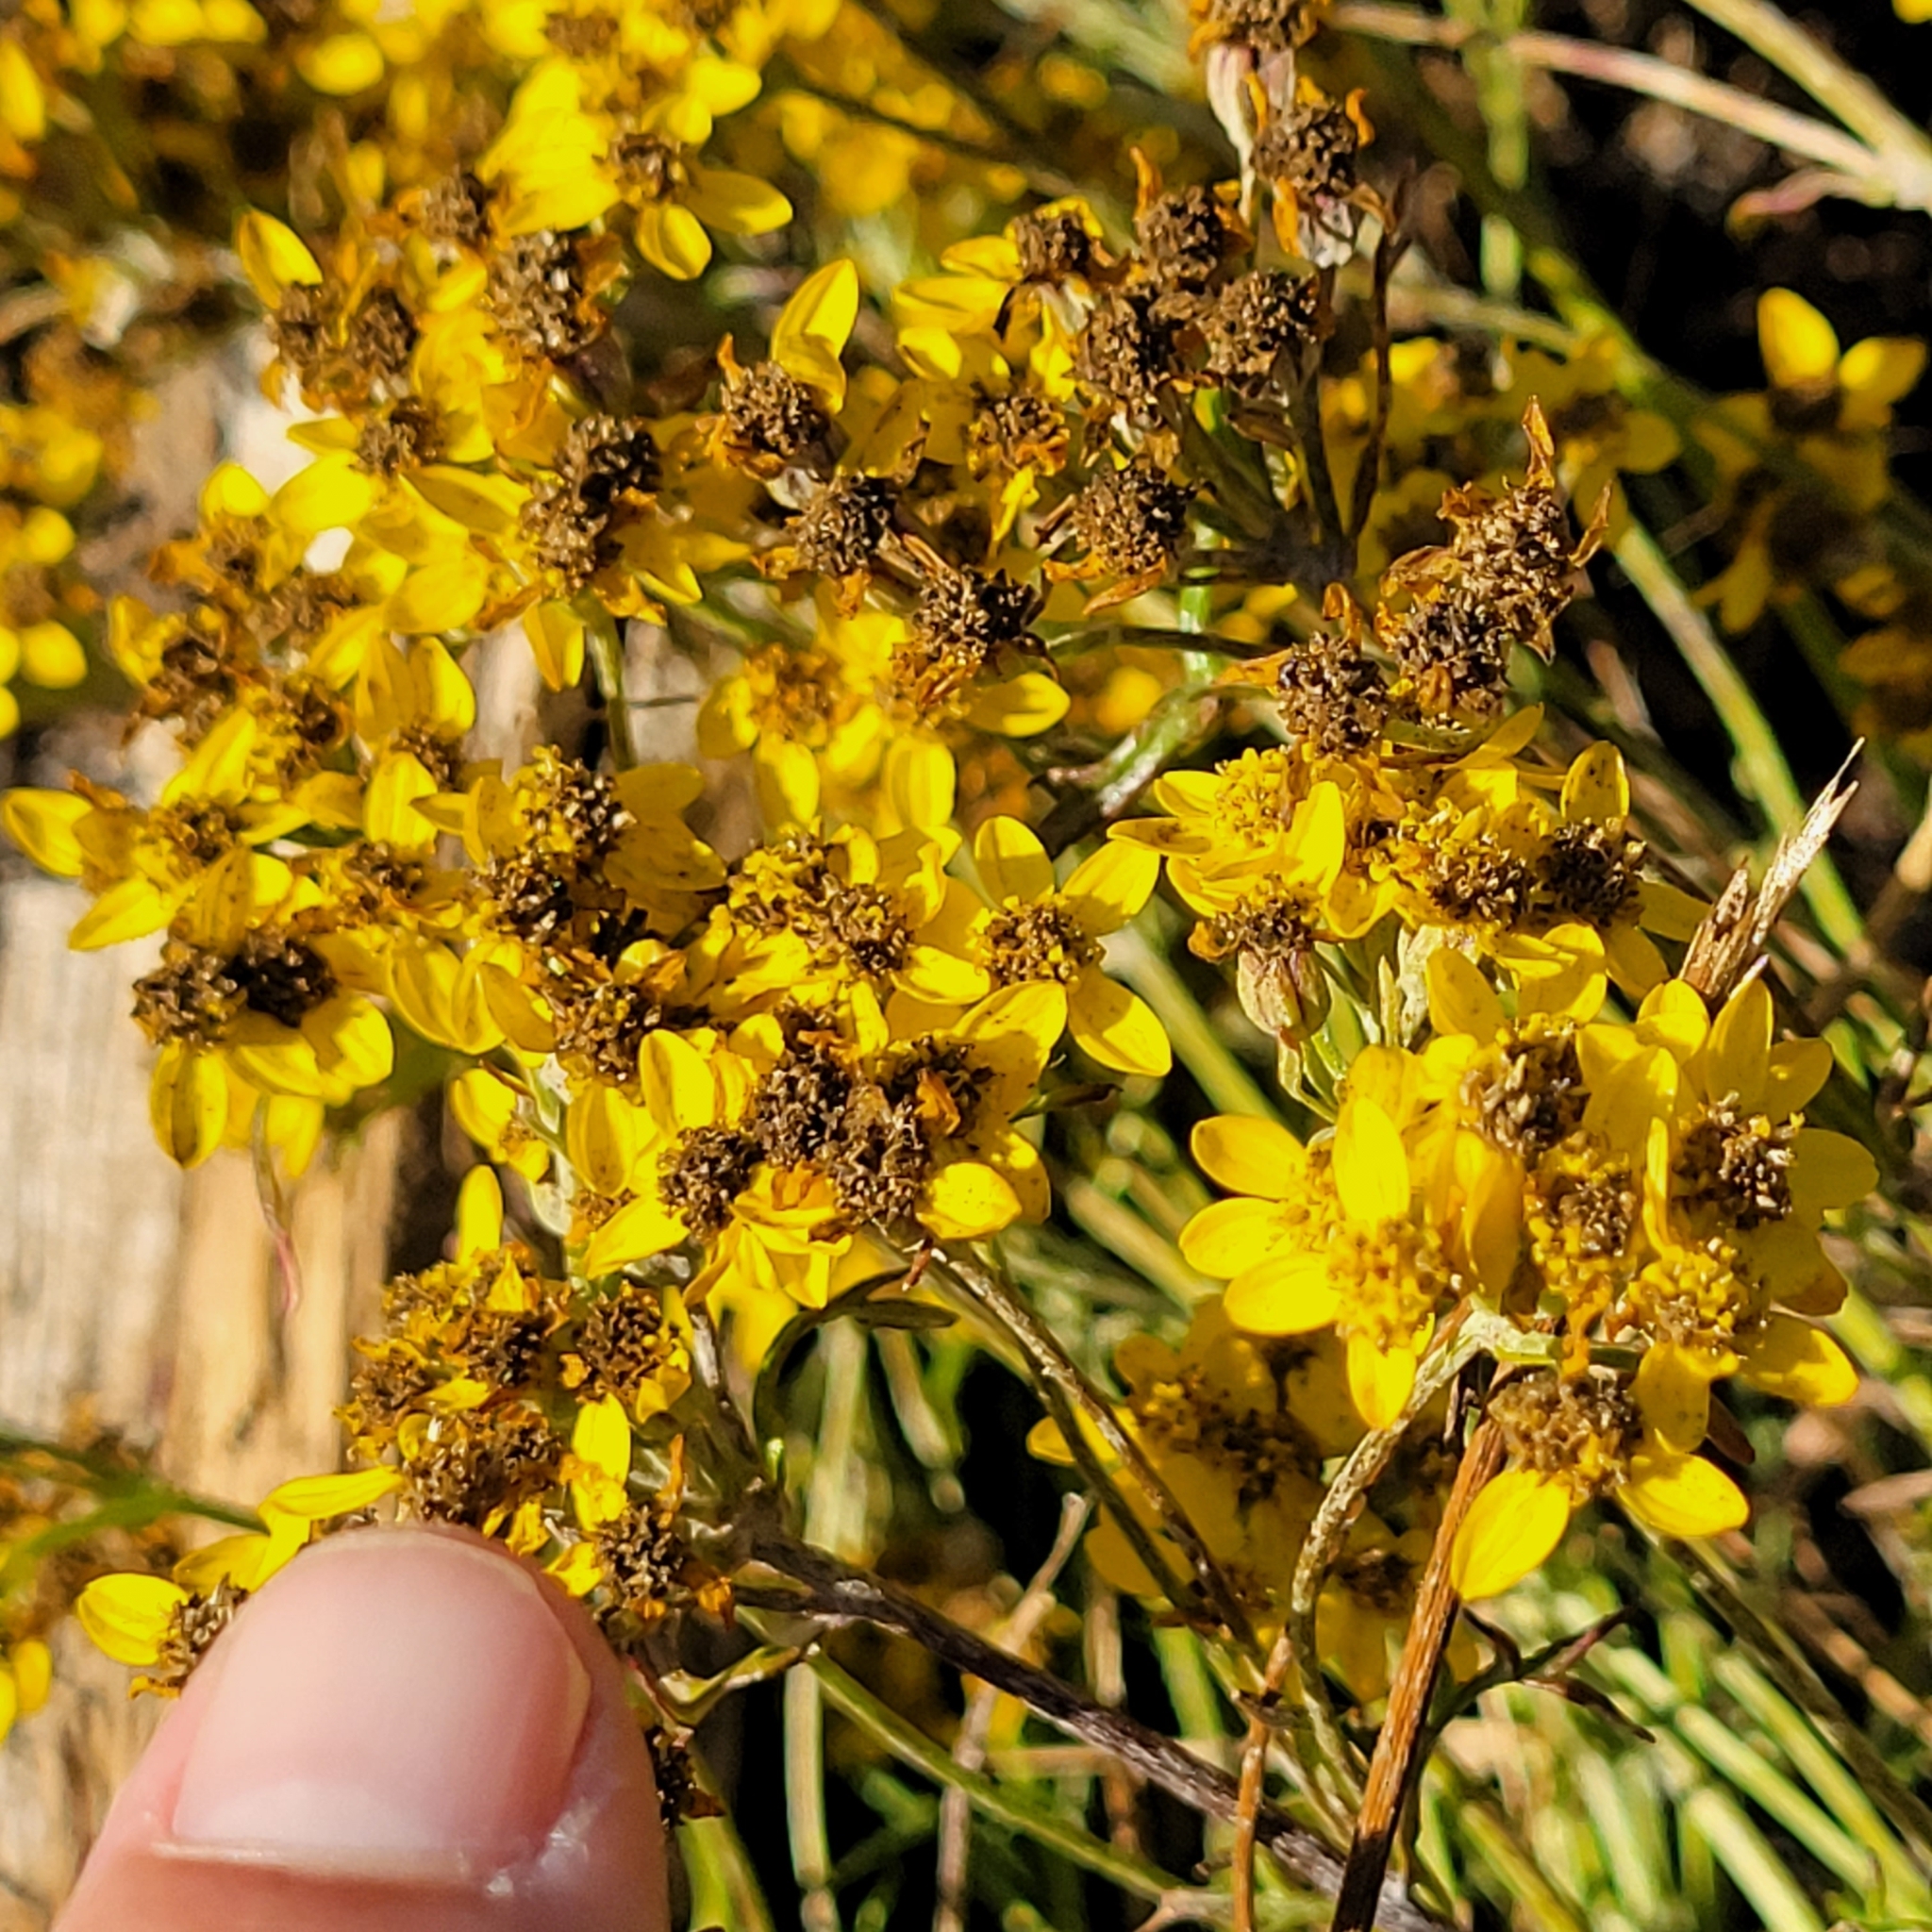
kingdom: Plantae
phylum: Tracheophyta
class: Magnoliopsida
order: Asterales
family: Asteraceae
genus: Eriophyllum
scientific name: Eriophyllum confertiflorum
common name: Golden-yarrow
